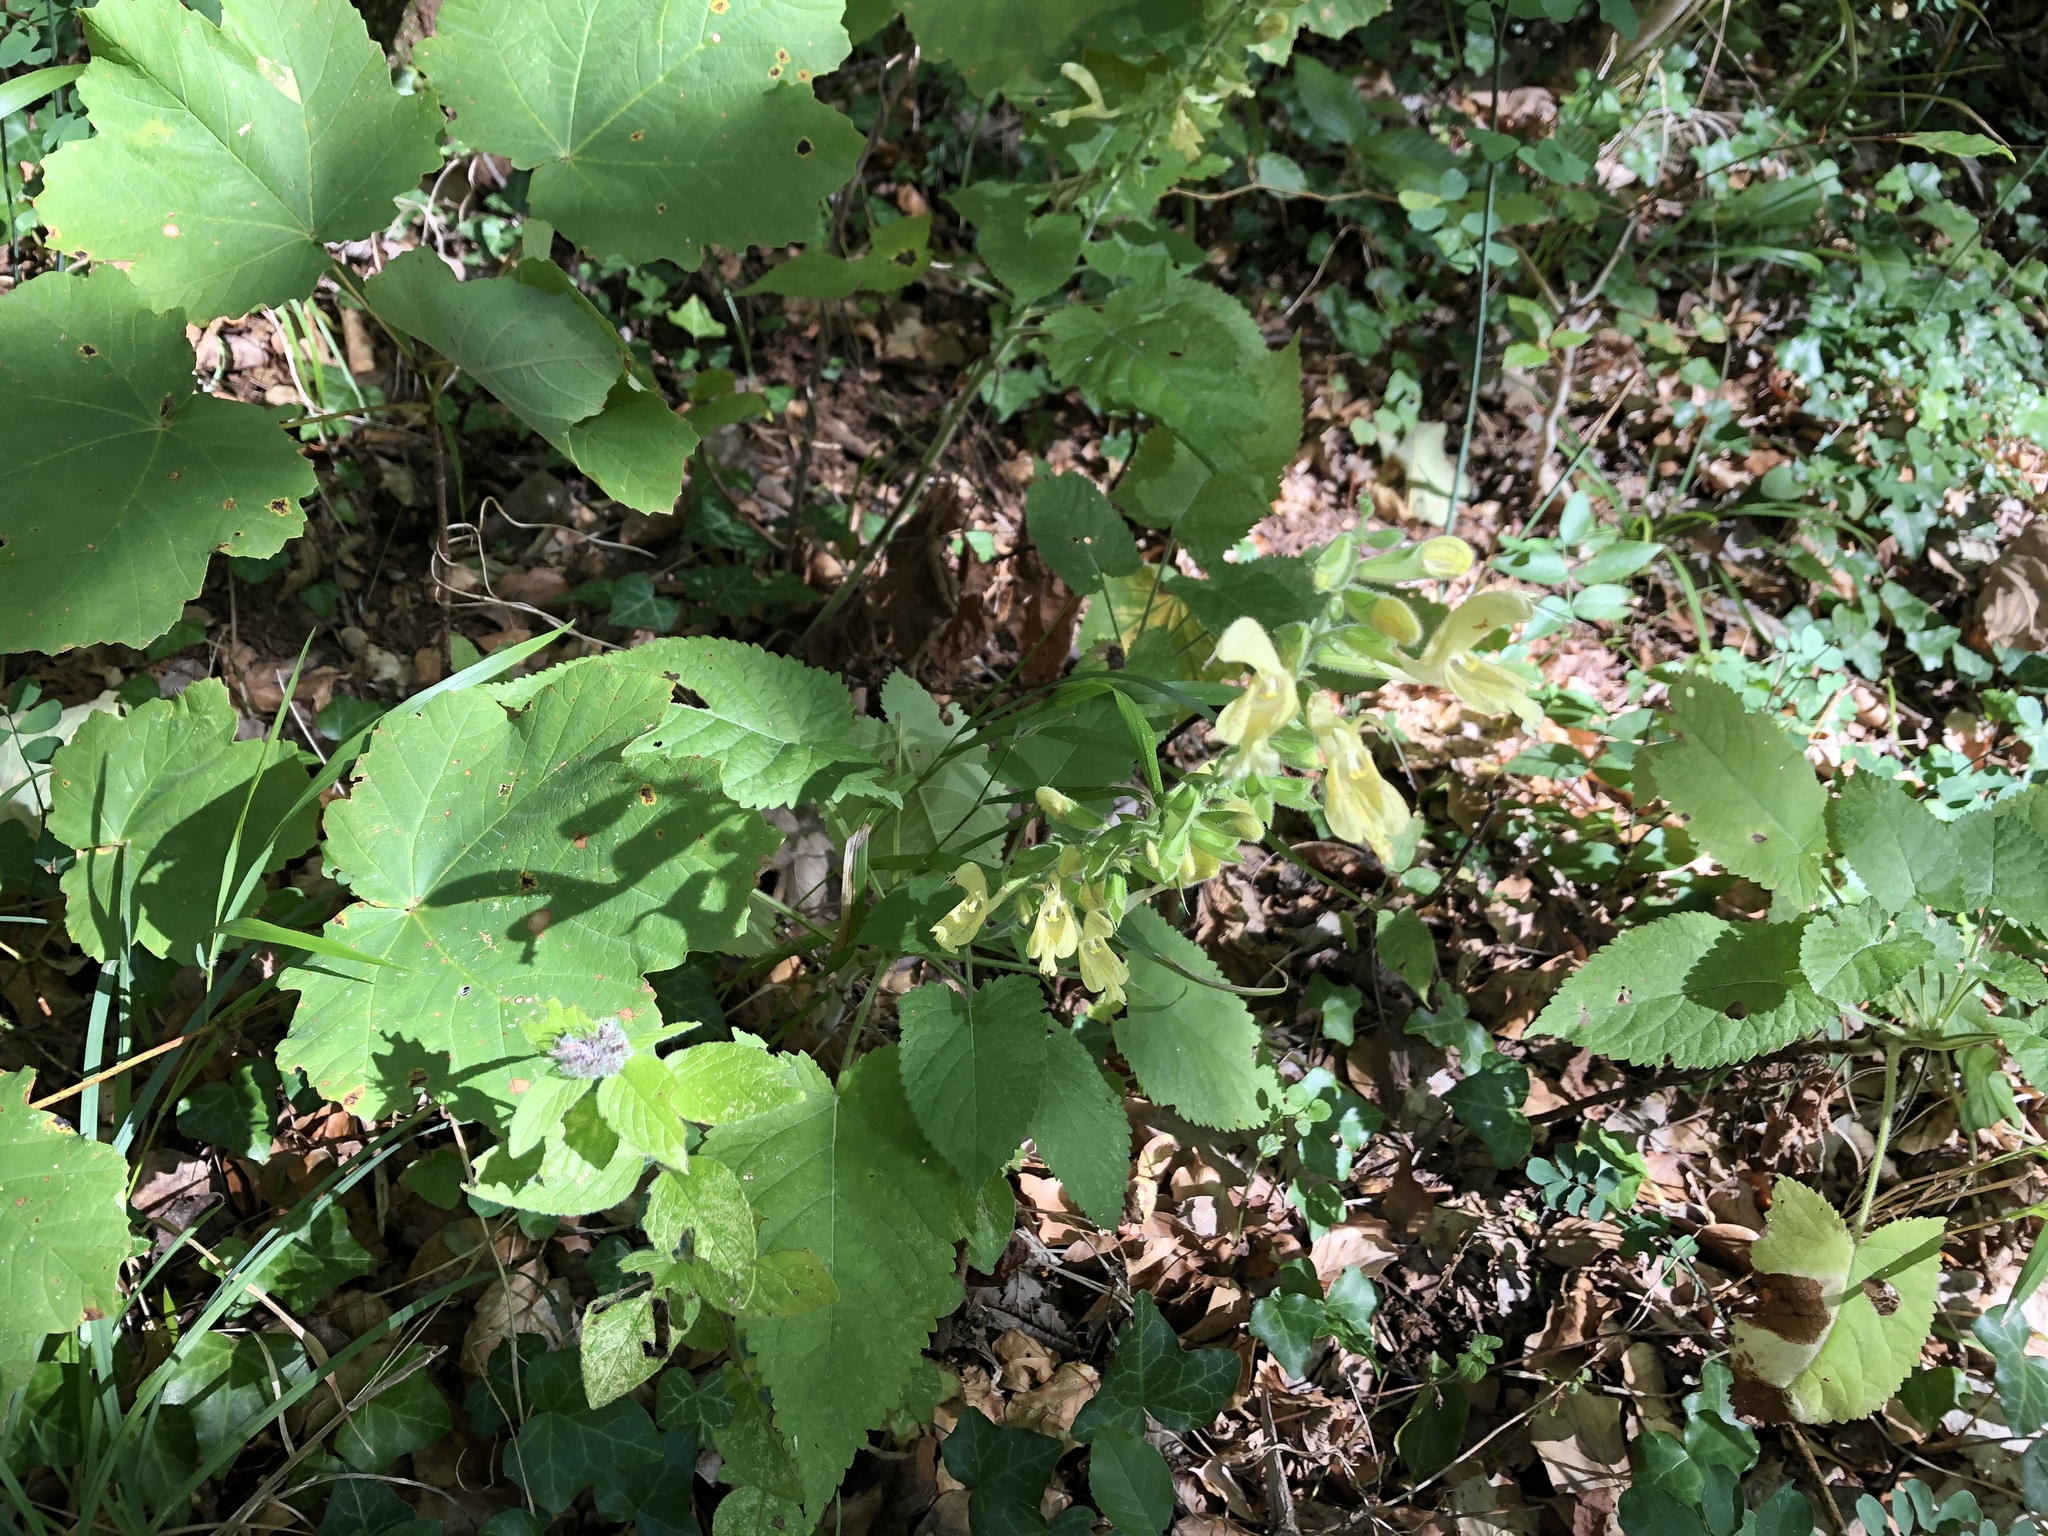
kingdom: Plantae
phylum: Tracheophyta
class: Magnoliopsida
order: Lamiales
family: Lamiaceae
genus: Salvia
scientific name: Salvia glutinosa
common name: Sticky clary
